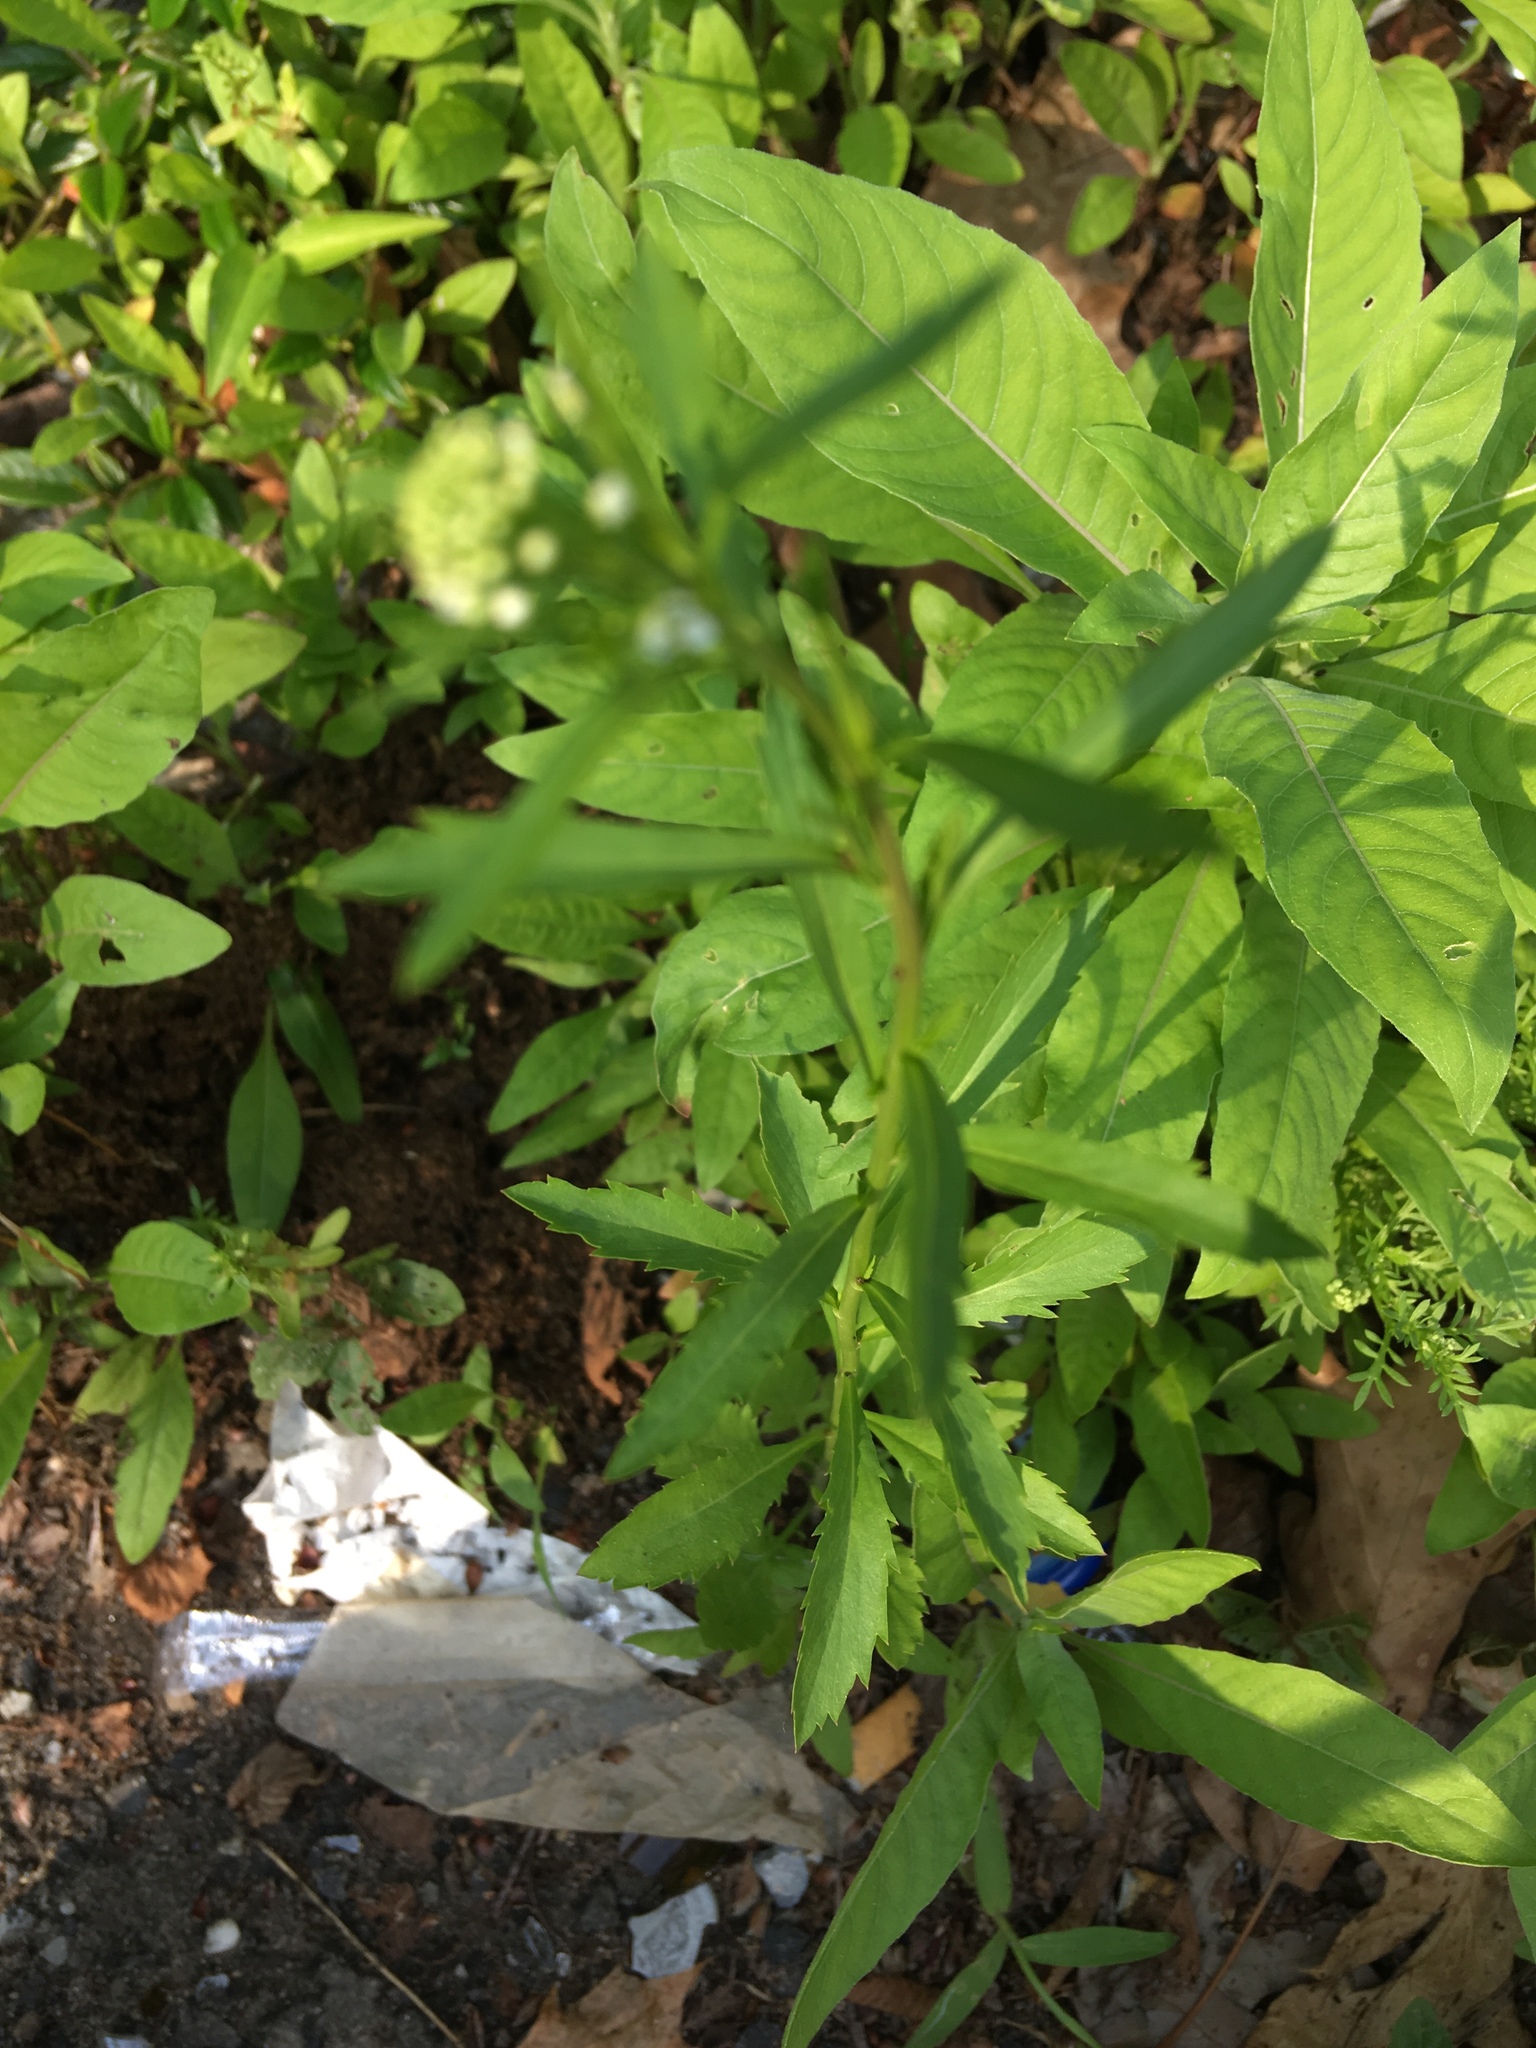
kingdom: Plantae
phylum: Tracheophyta
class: Magnoliopsida
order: Brassicales
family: Brassicaceae
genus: Lepidium
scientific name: Lepidium virginicum
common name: Least pepperwort
